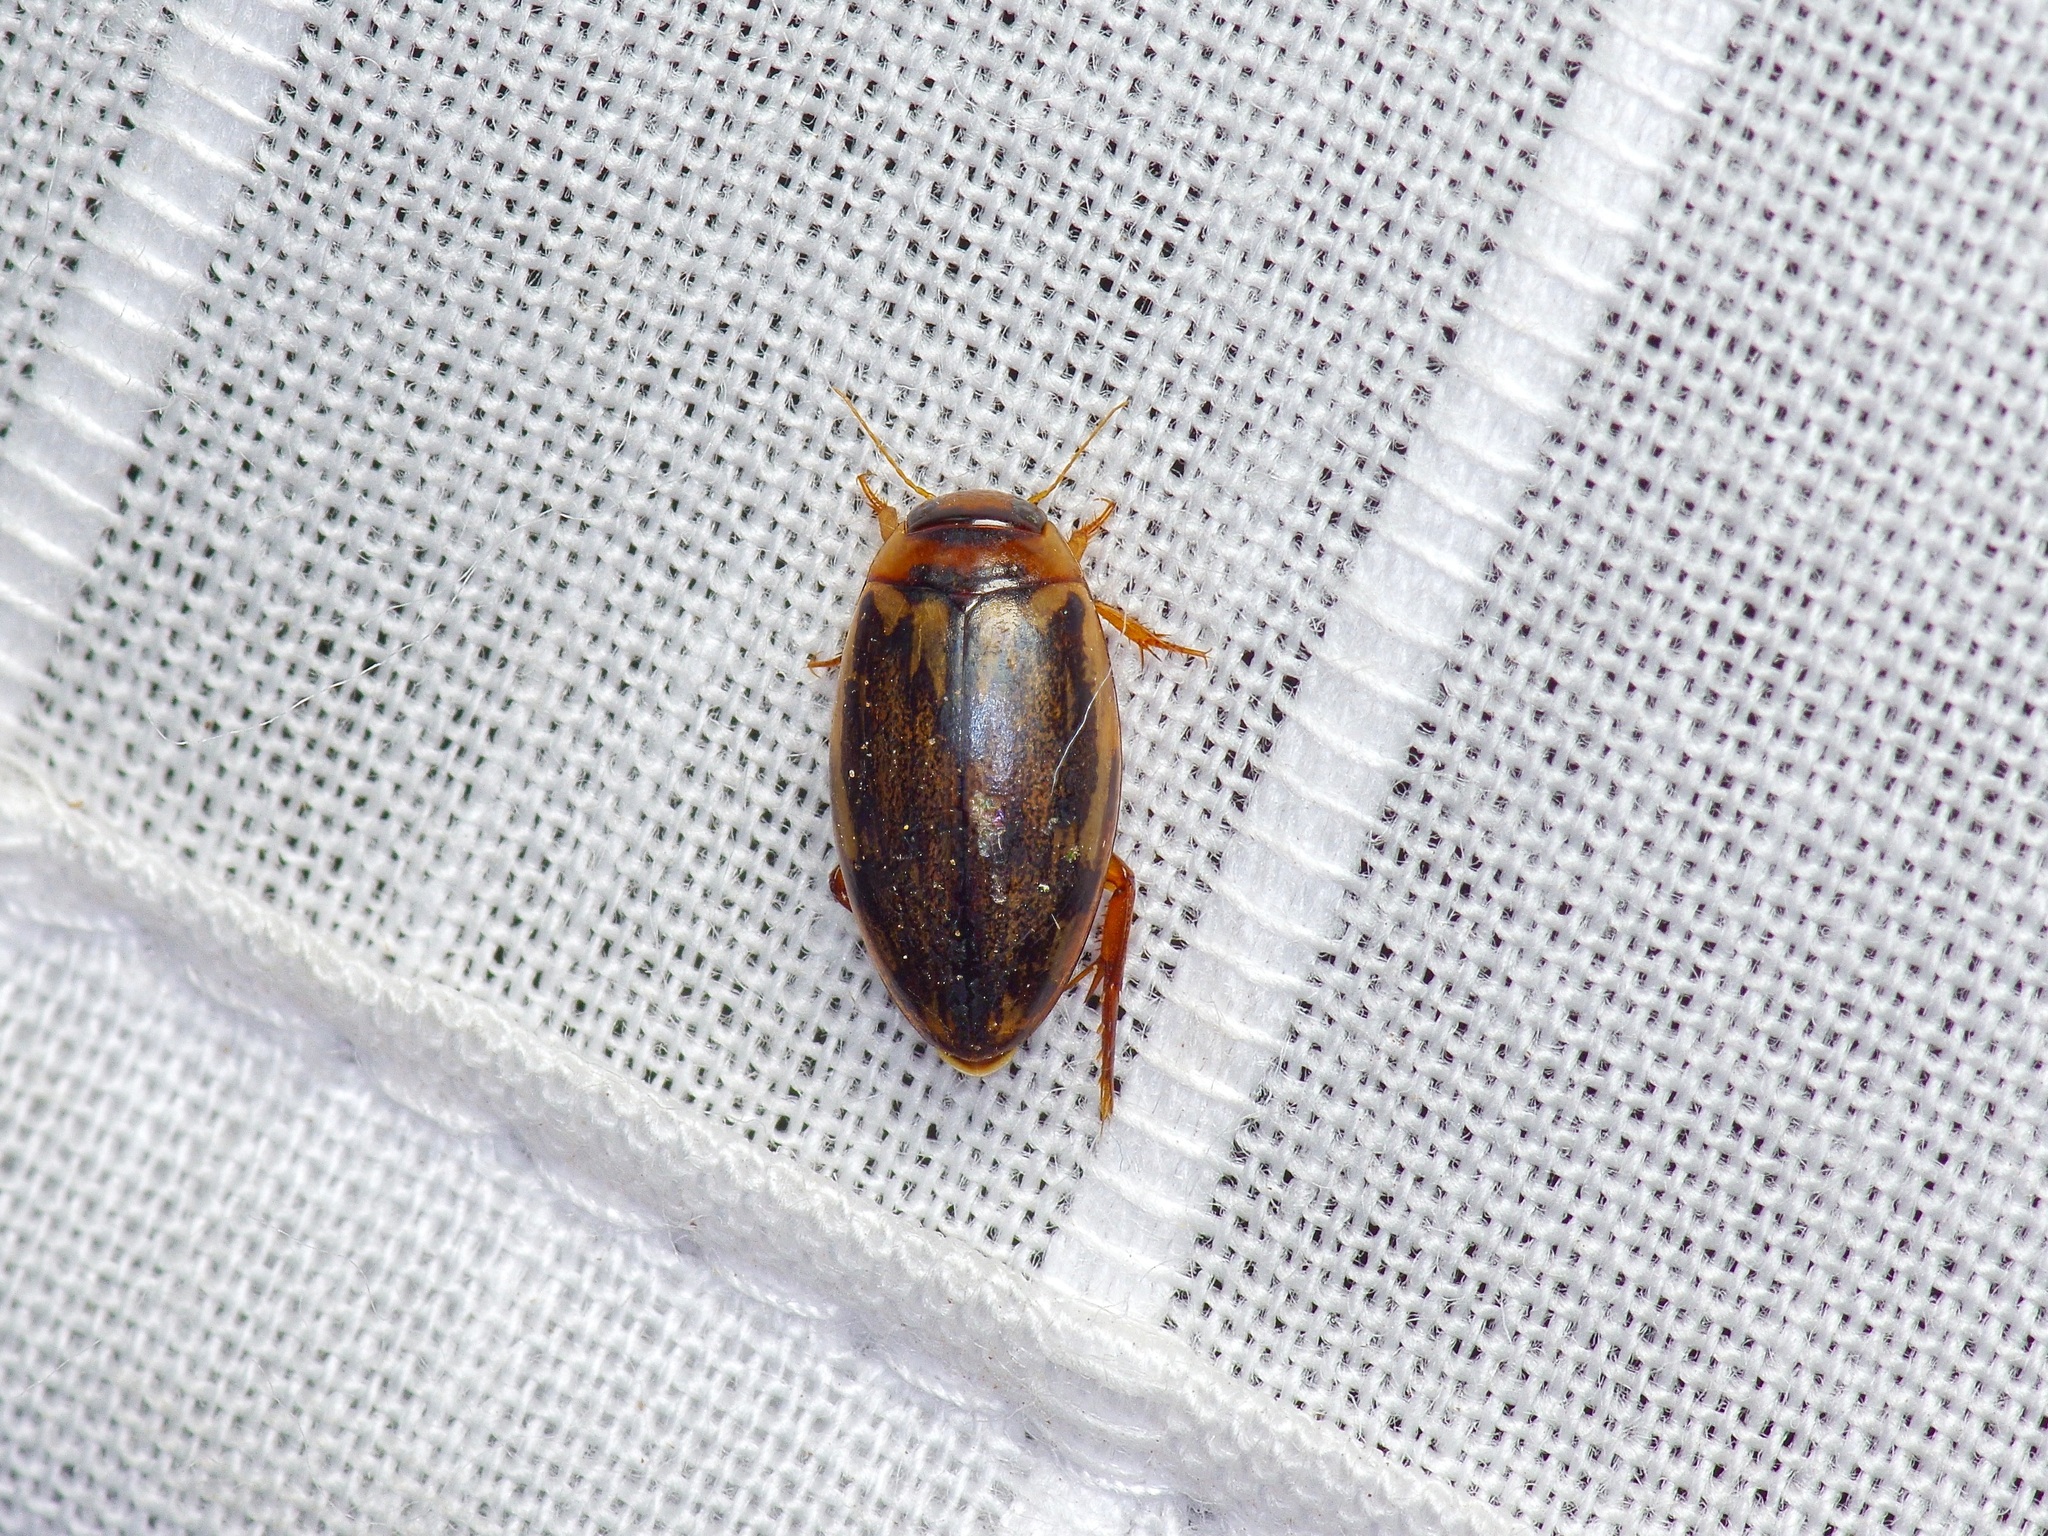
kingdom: Animalia
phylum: Arthropoda
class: Insecta
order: Coleoptera
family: Dytiscidae
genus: Coptotomus
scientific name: Coptotomus
